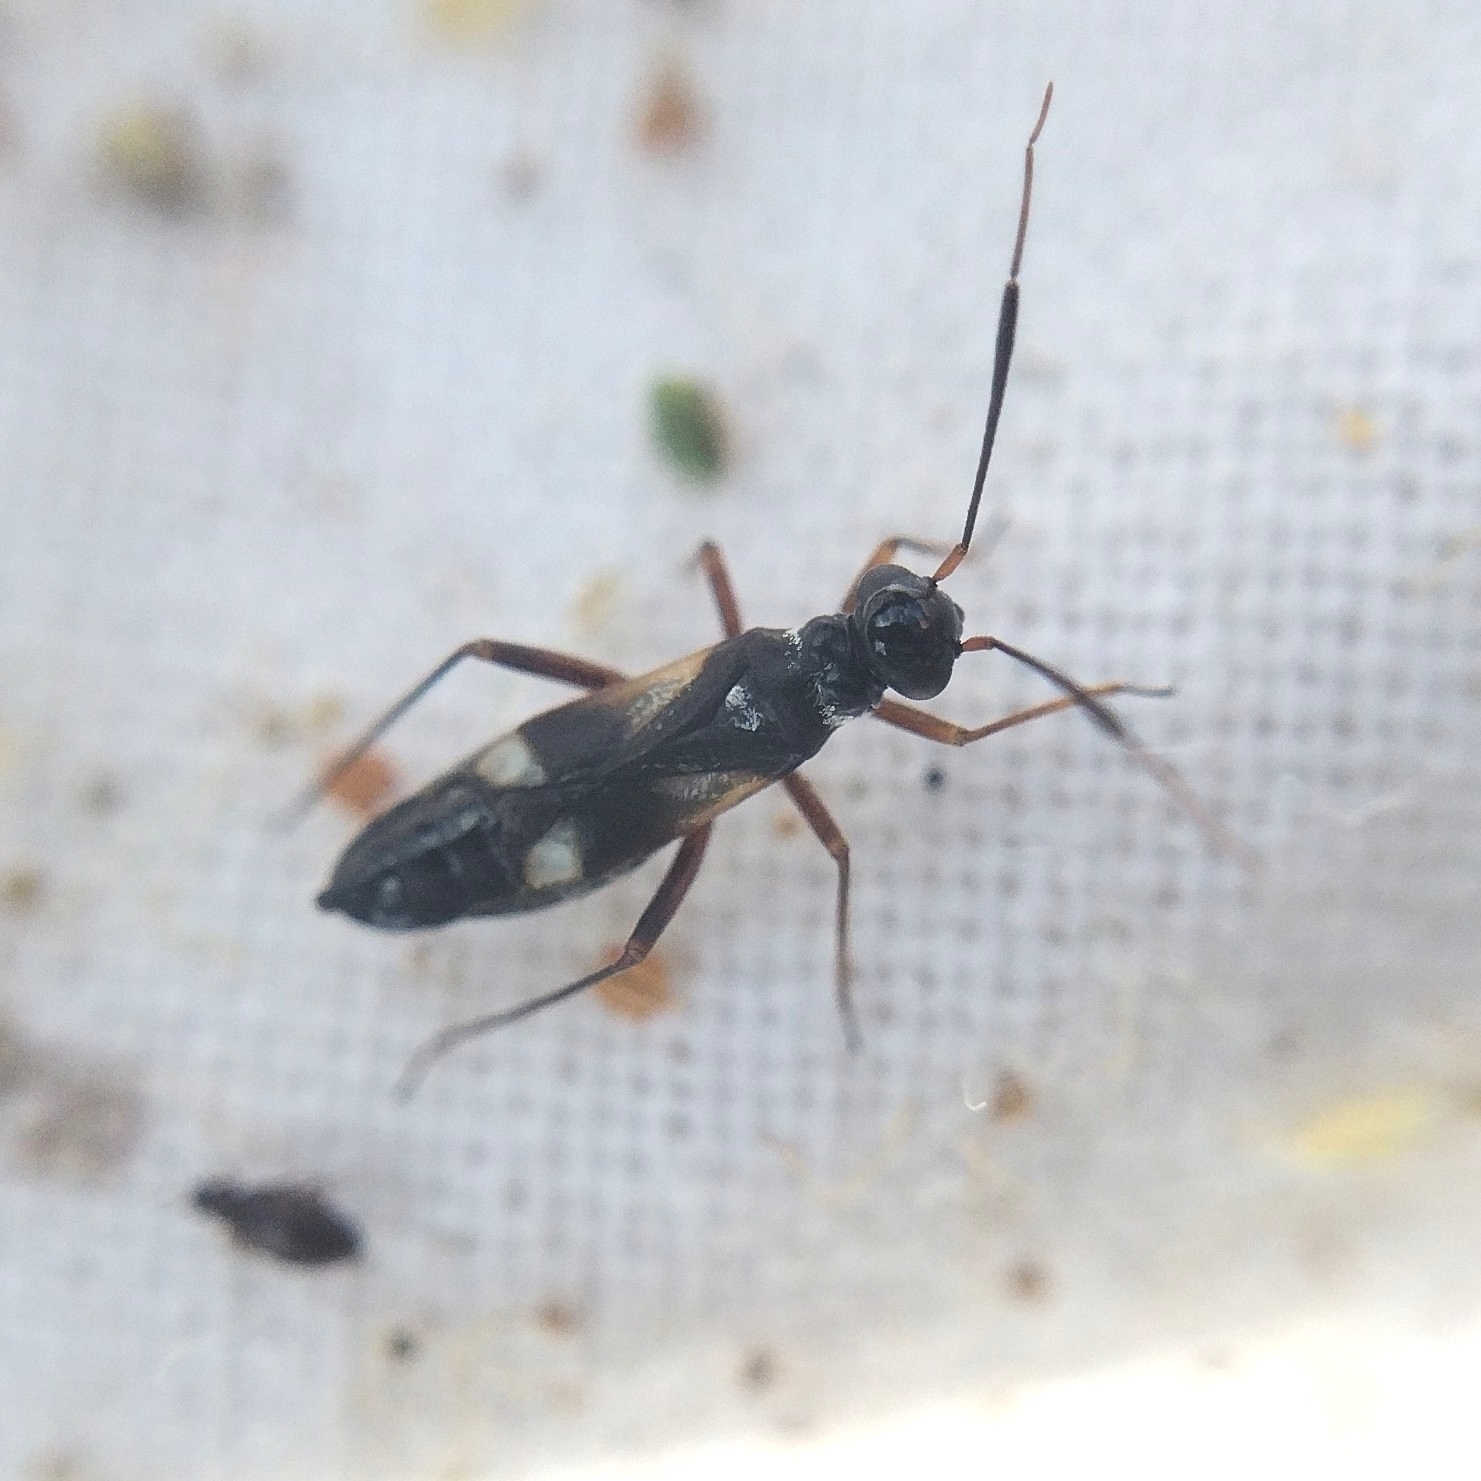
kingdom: Animalia
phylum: Arthropoda
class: Insecta
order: Hemiptera
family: Miridae
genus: Globiceps
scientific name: Globiceps flavomaculatus
